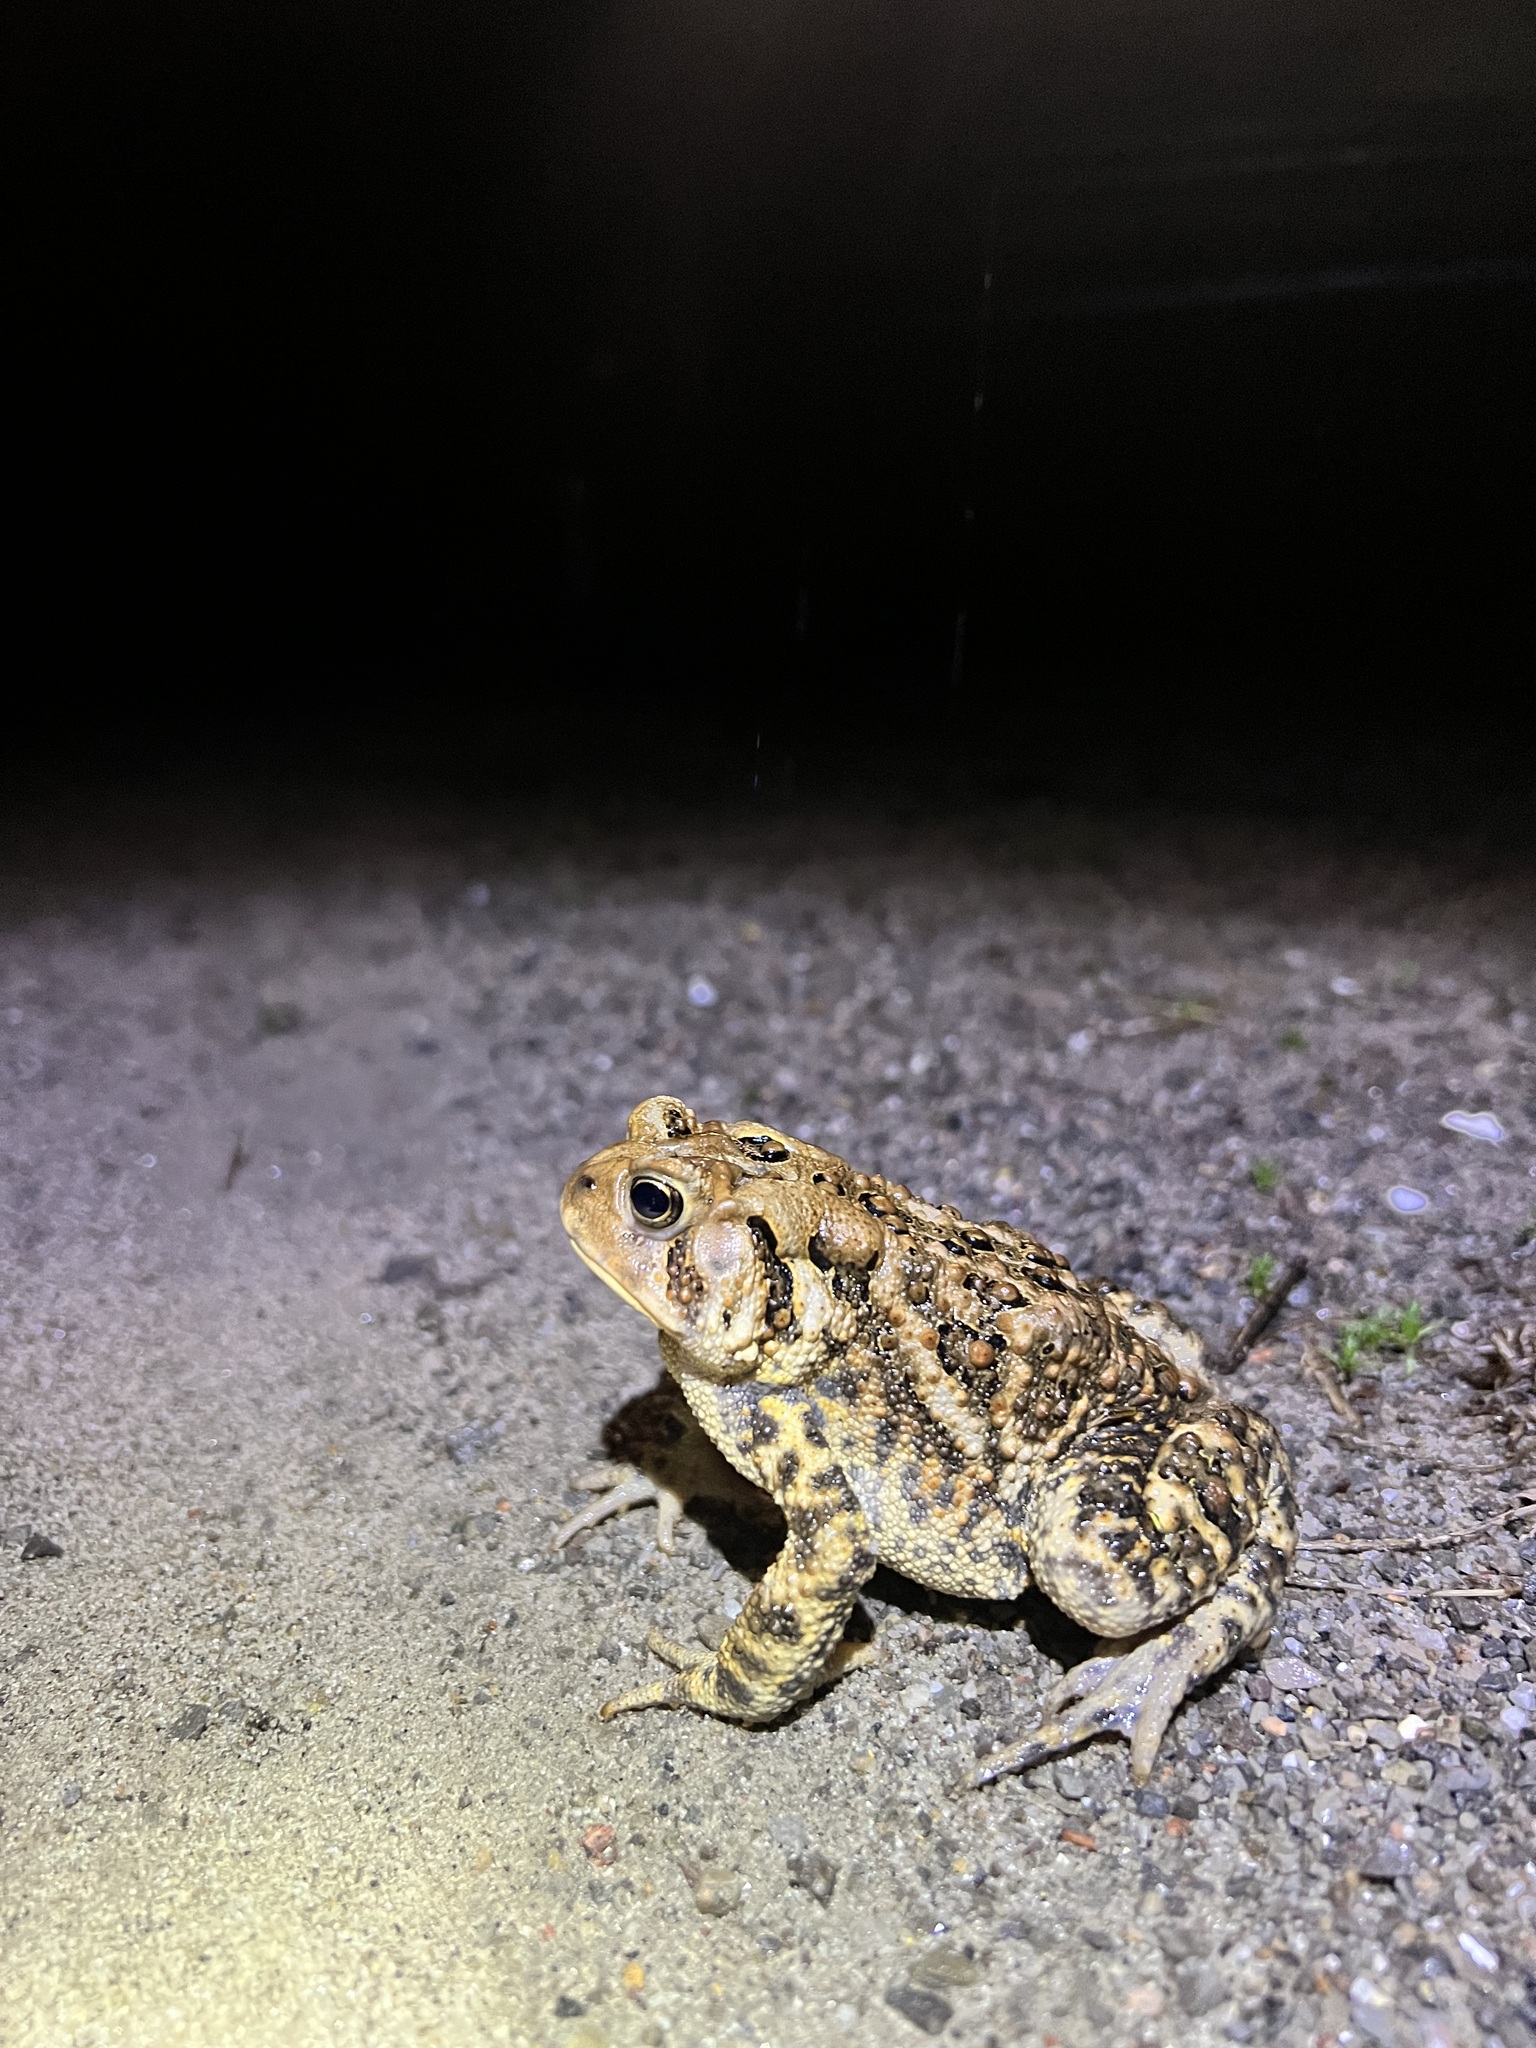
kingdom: Animalia
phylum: Chordata
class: Amphibia
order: Anura
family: Bufonidae
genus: Anaxyrus
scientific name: Anaxyrus americanus
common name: American toad
